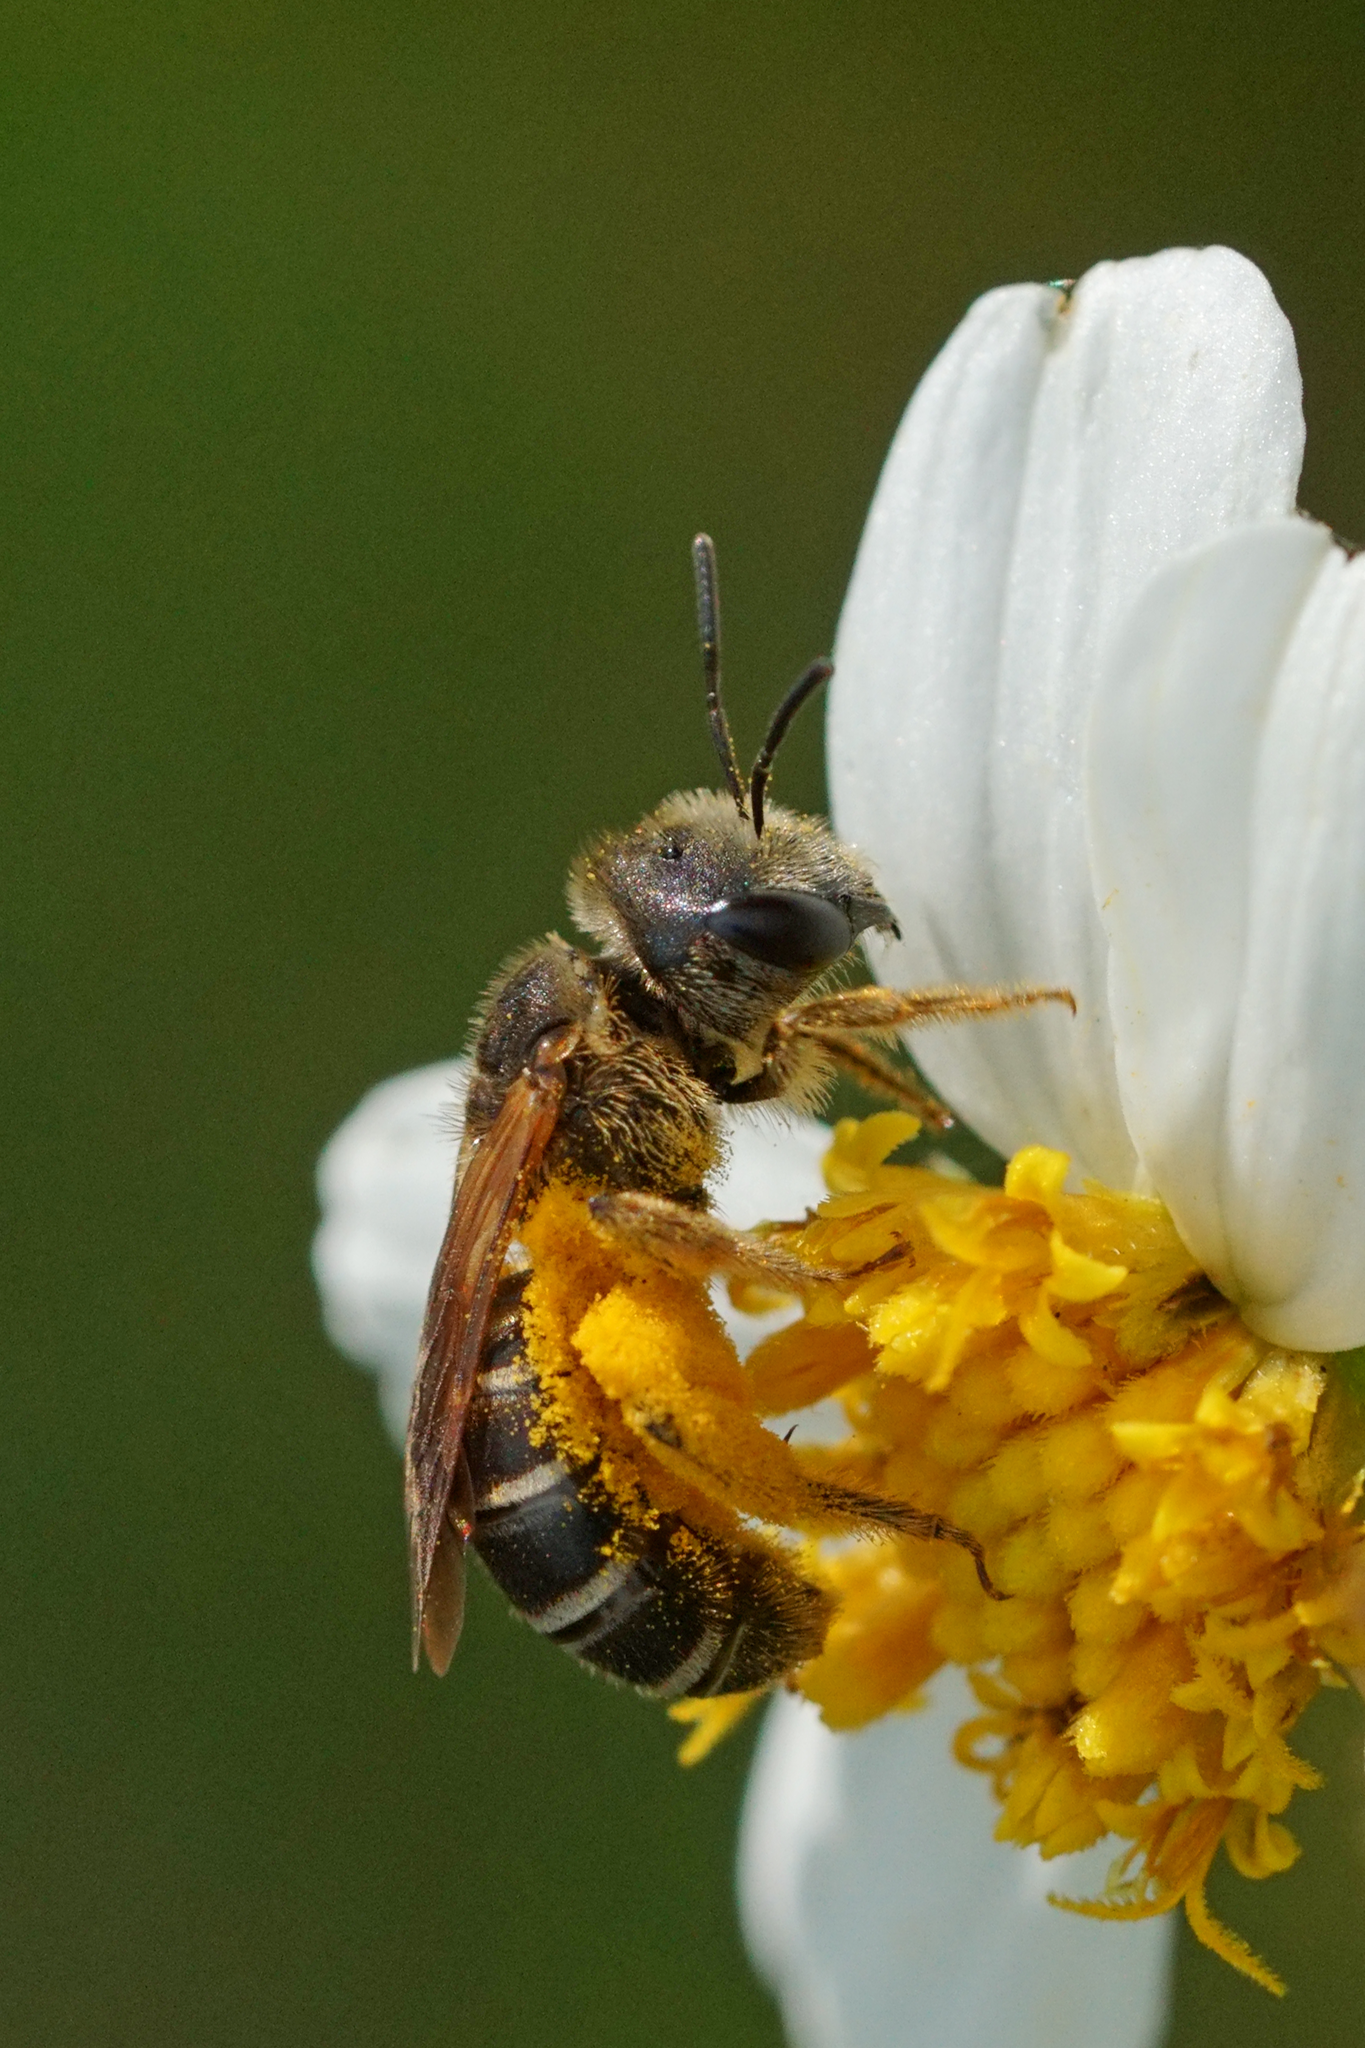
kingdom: Animalia
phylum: Arthropoda
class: Insecta
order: Hymenoptera
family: Halictidae
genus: Halictus
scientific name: Halictus poeyi
